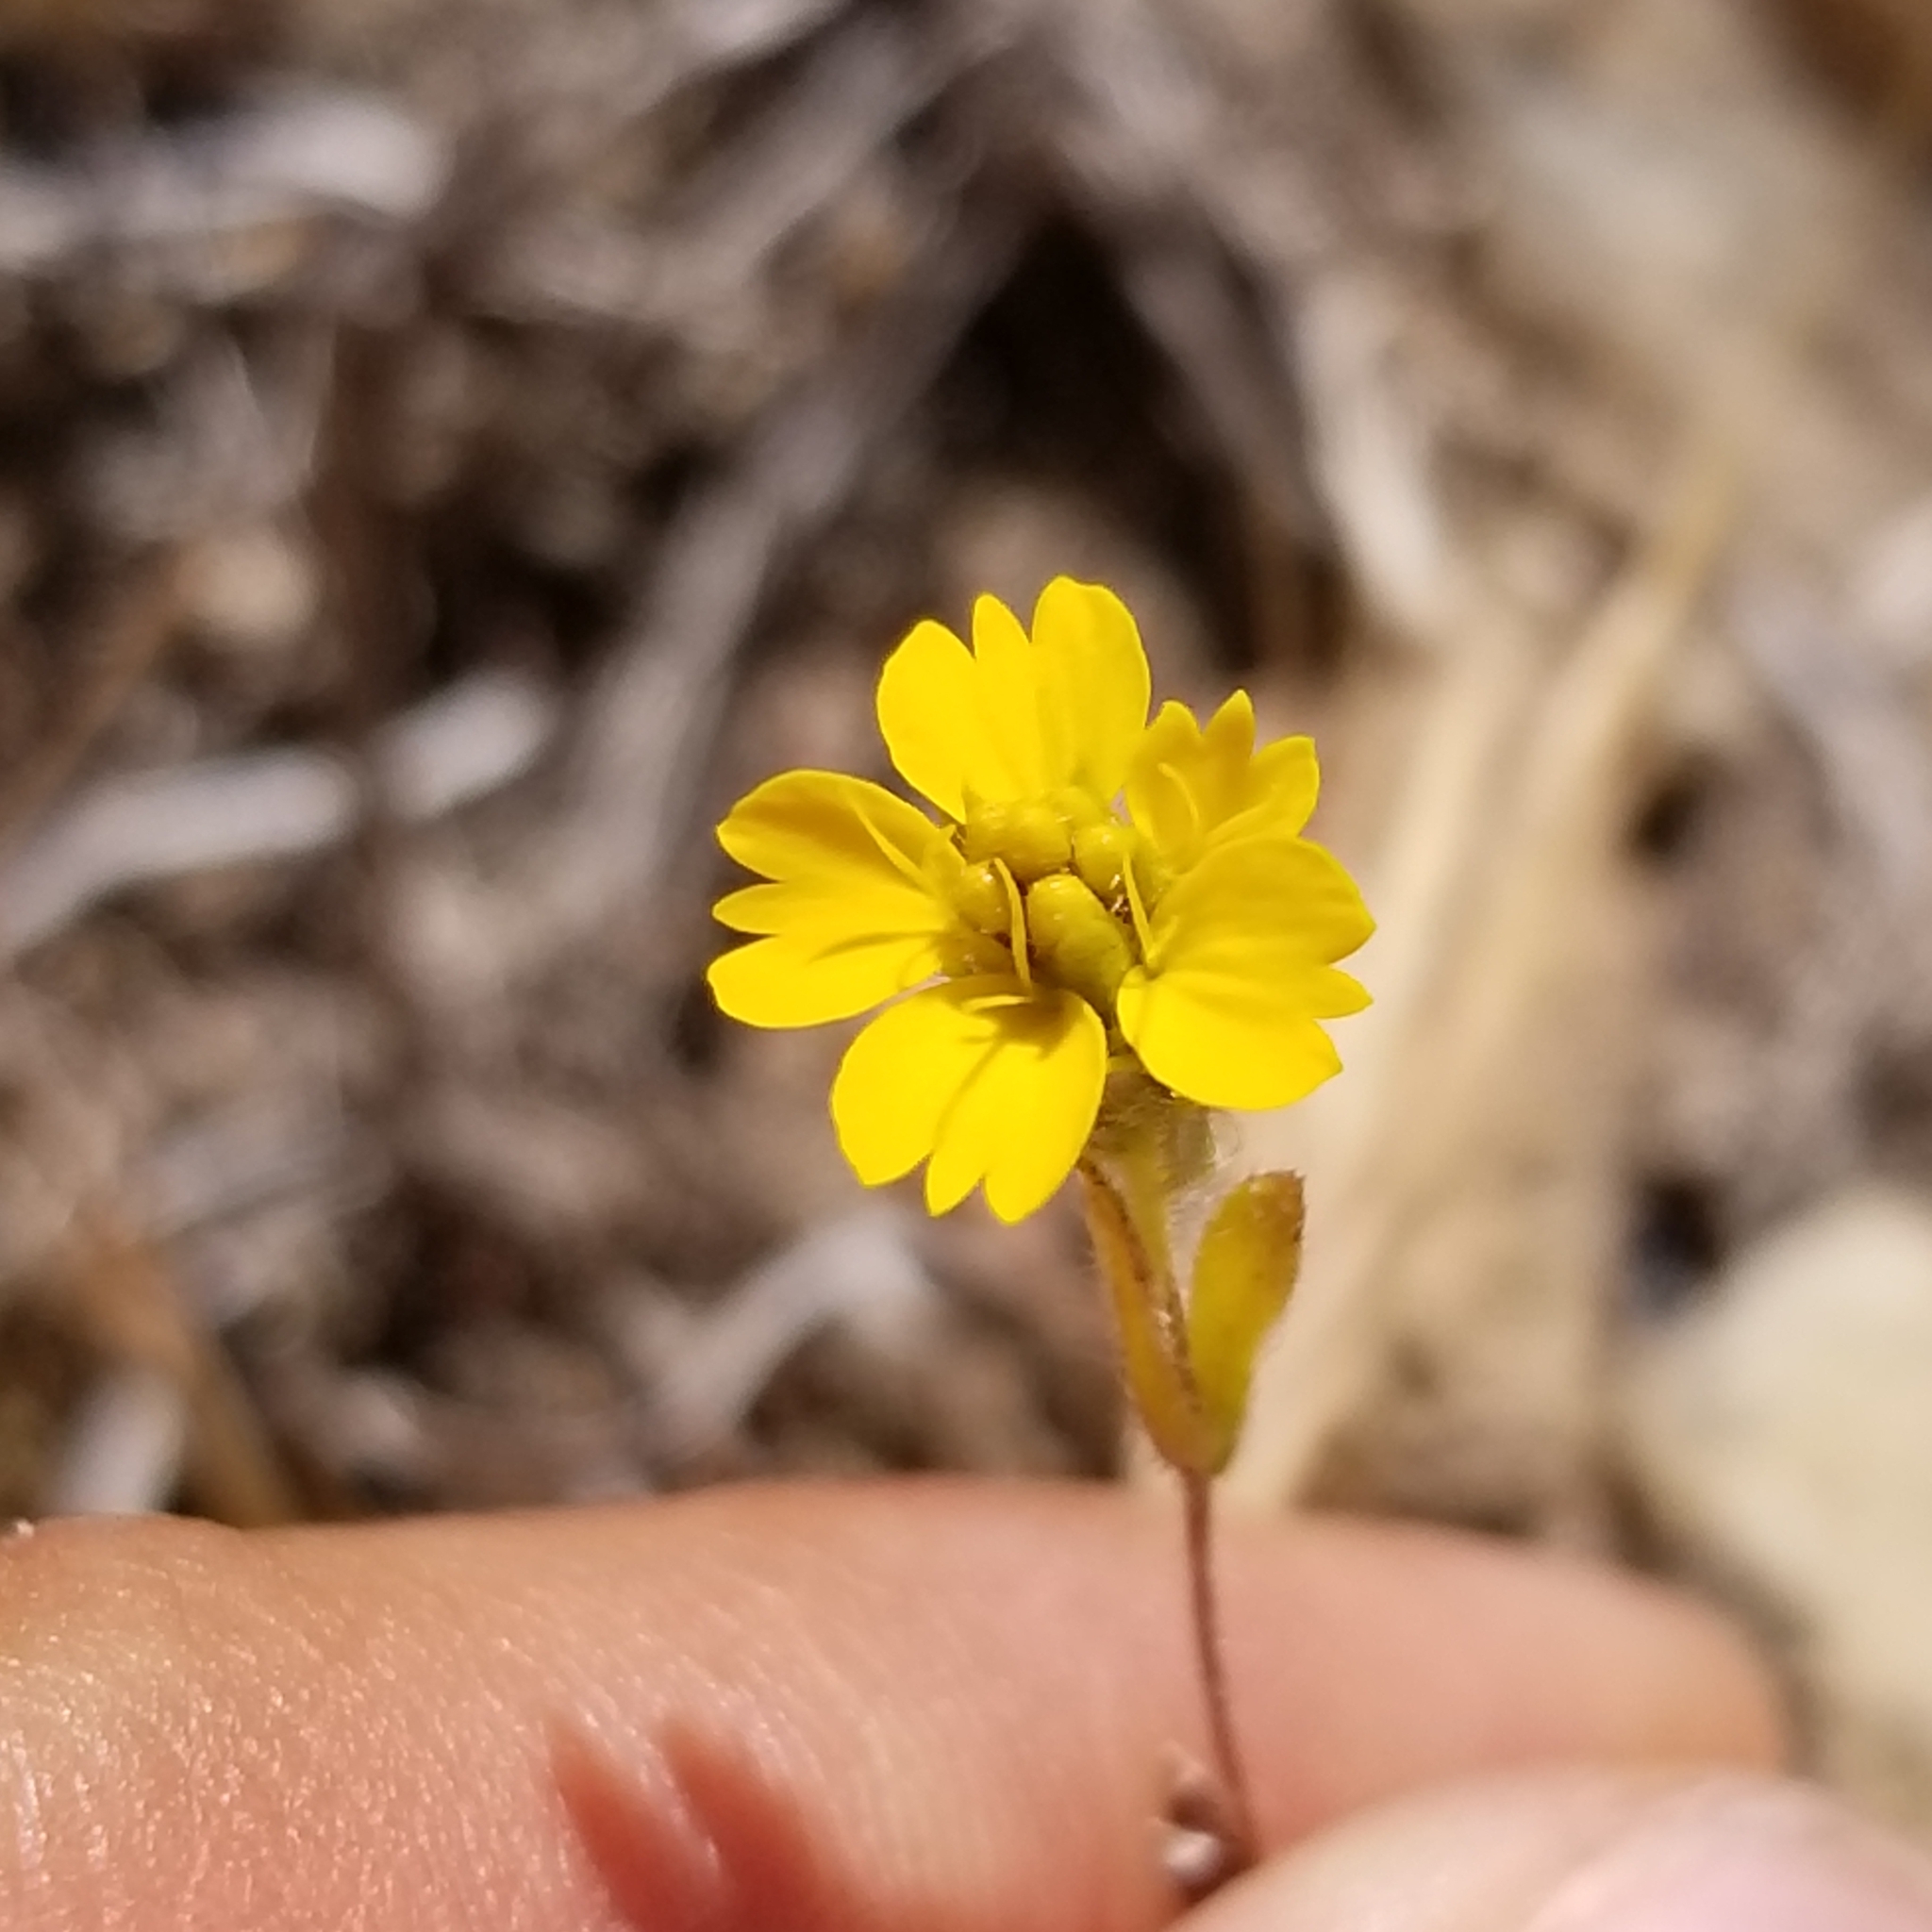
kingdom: Plantae
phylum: Tracheophyta
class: Magnoliopsida
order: Asterales
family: Asteraceae
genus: Deinandra
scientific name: Deinandra fasciculata
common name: Clustered tarweed
